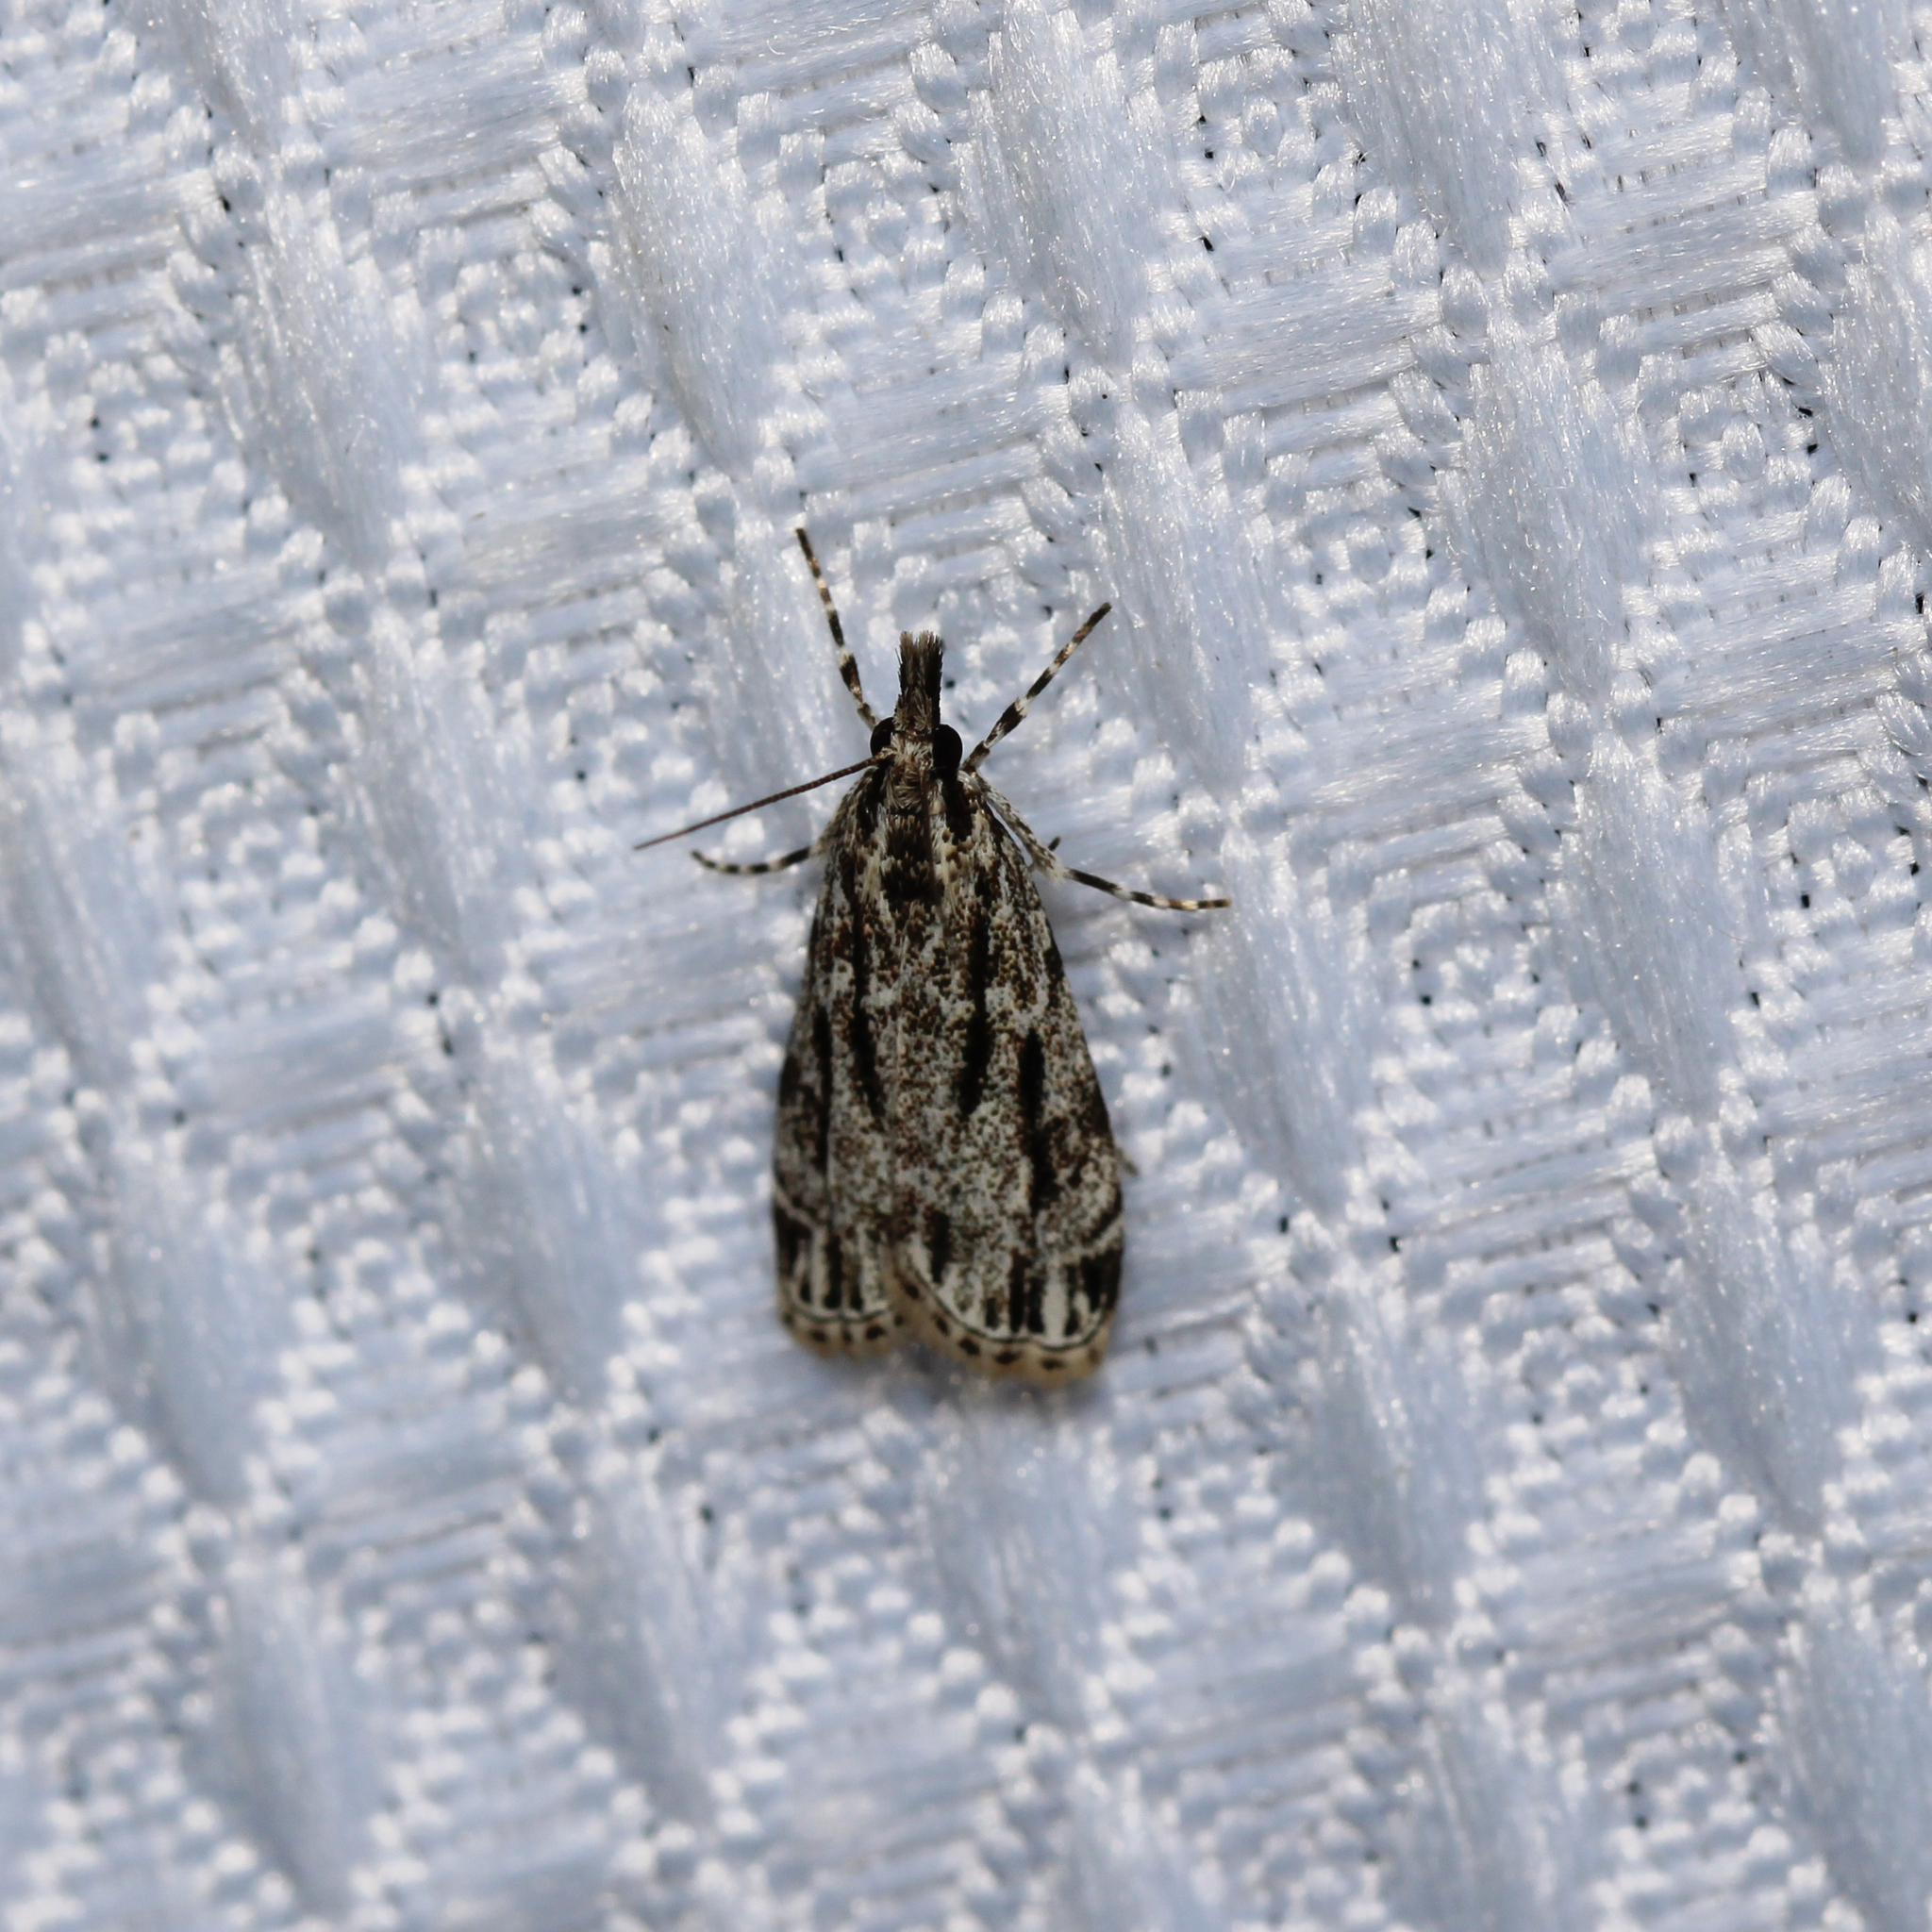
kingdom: Animalia
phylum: Arthropoda
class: Insecta
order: Lepidoptera
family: Crambidae
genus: Eudonia
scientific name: Eudonia strigalis
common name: Striped eudonia moth
